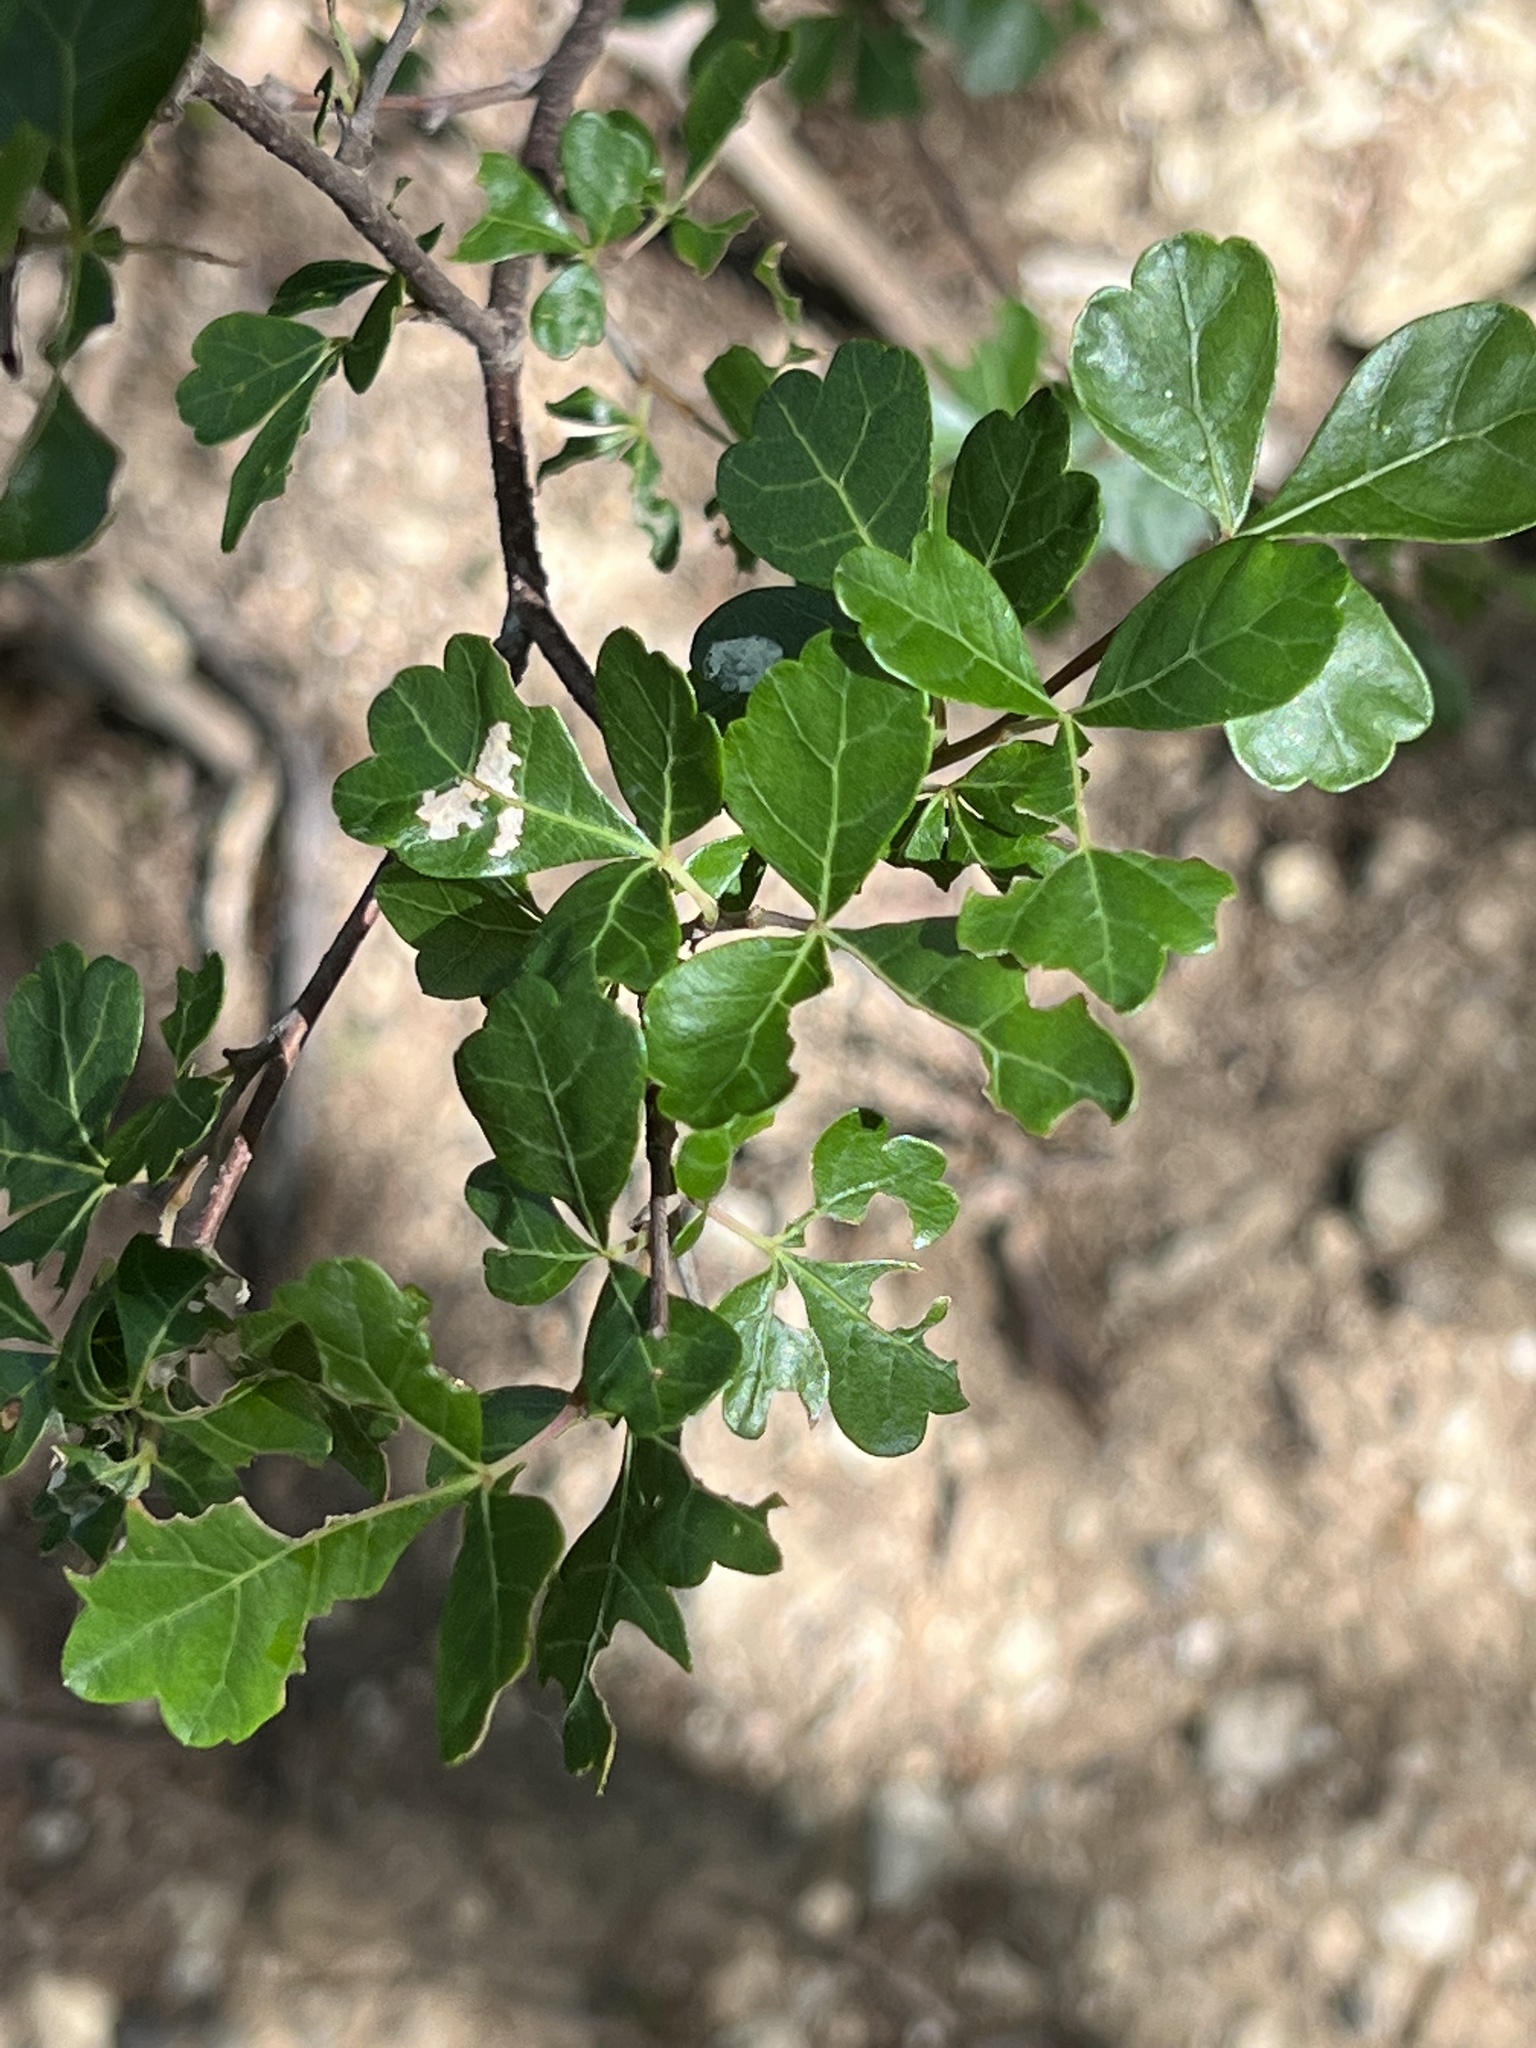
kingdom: Plantae
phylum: Tracheophyta
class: Magnoliopsida
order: Sapindales
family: Anacardiaceae
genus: Rhus
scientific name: Rhus trilobata
